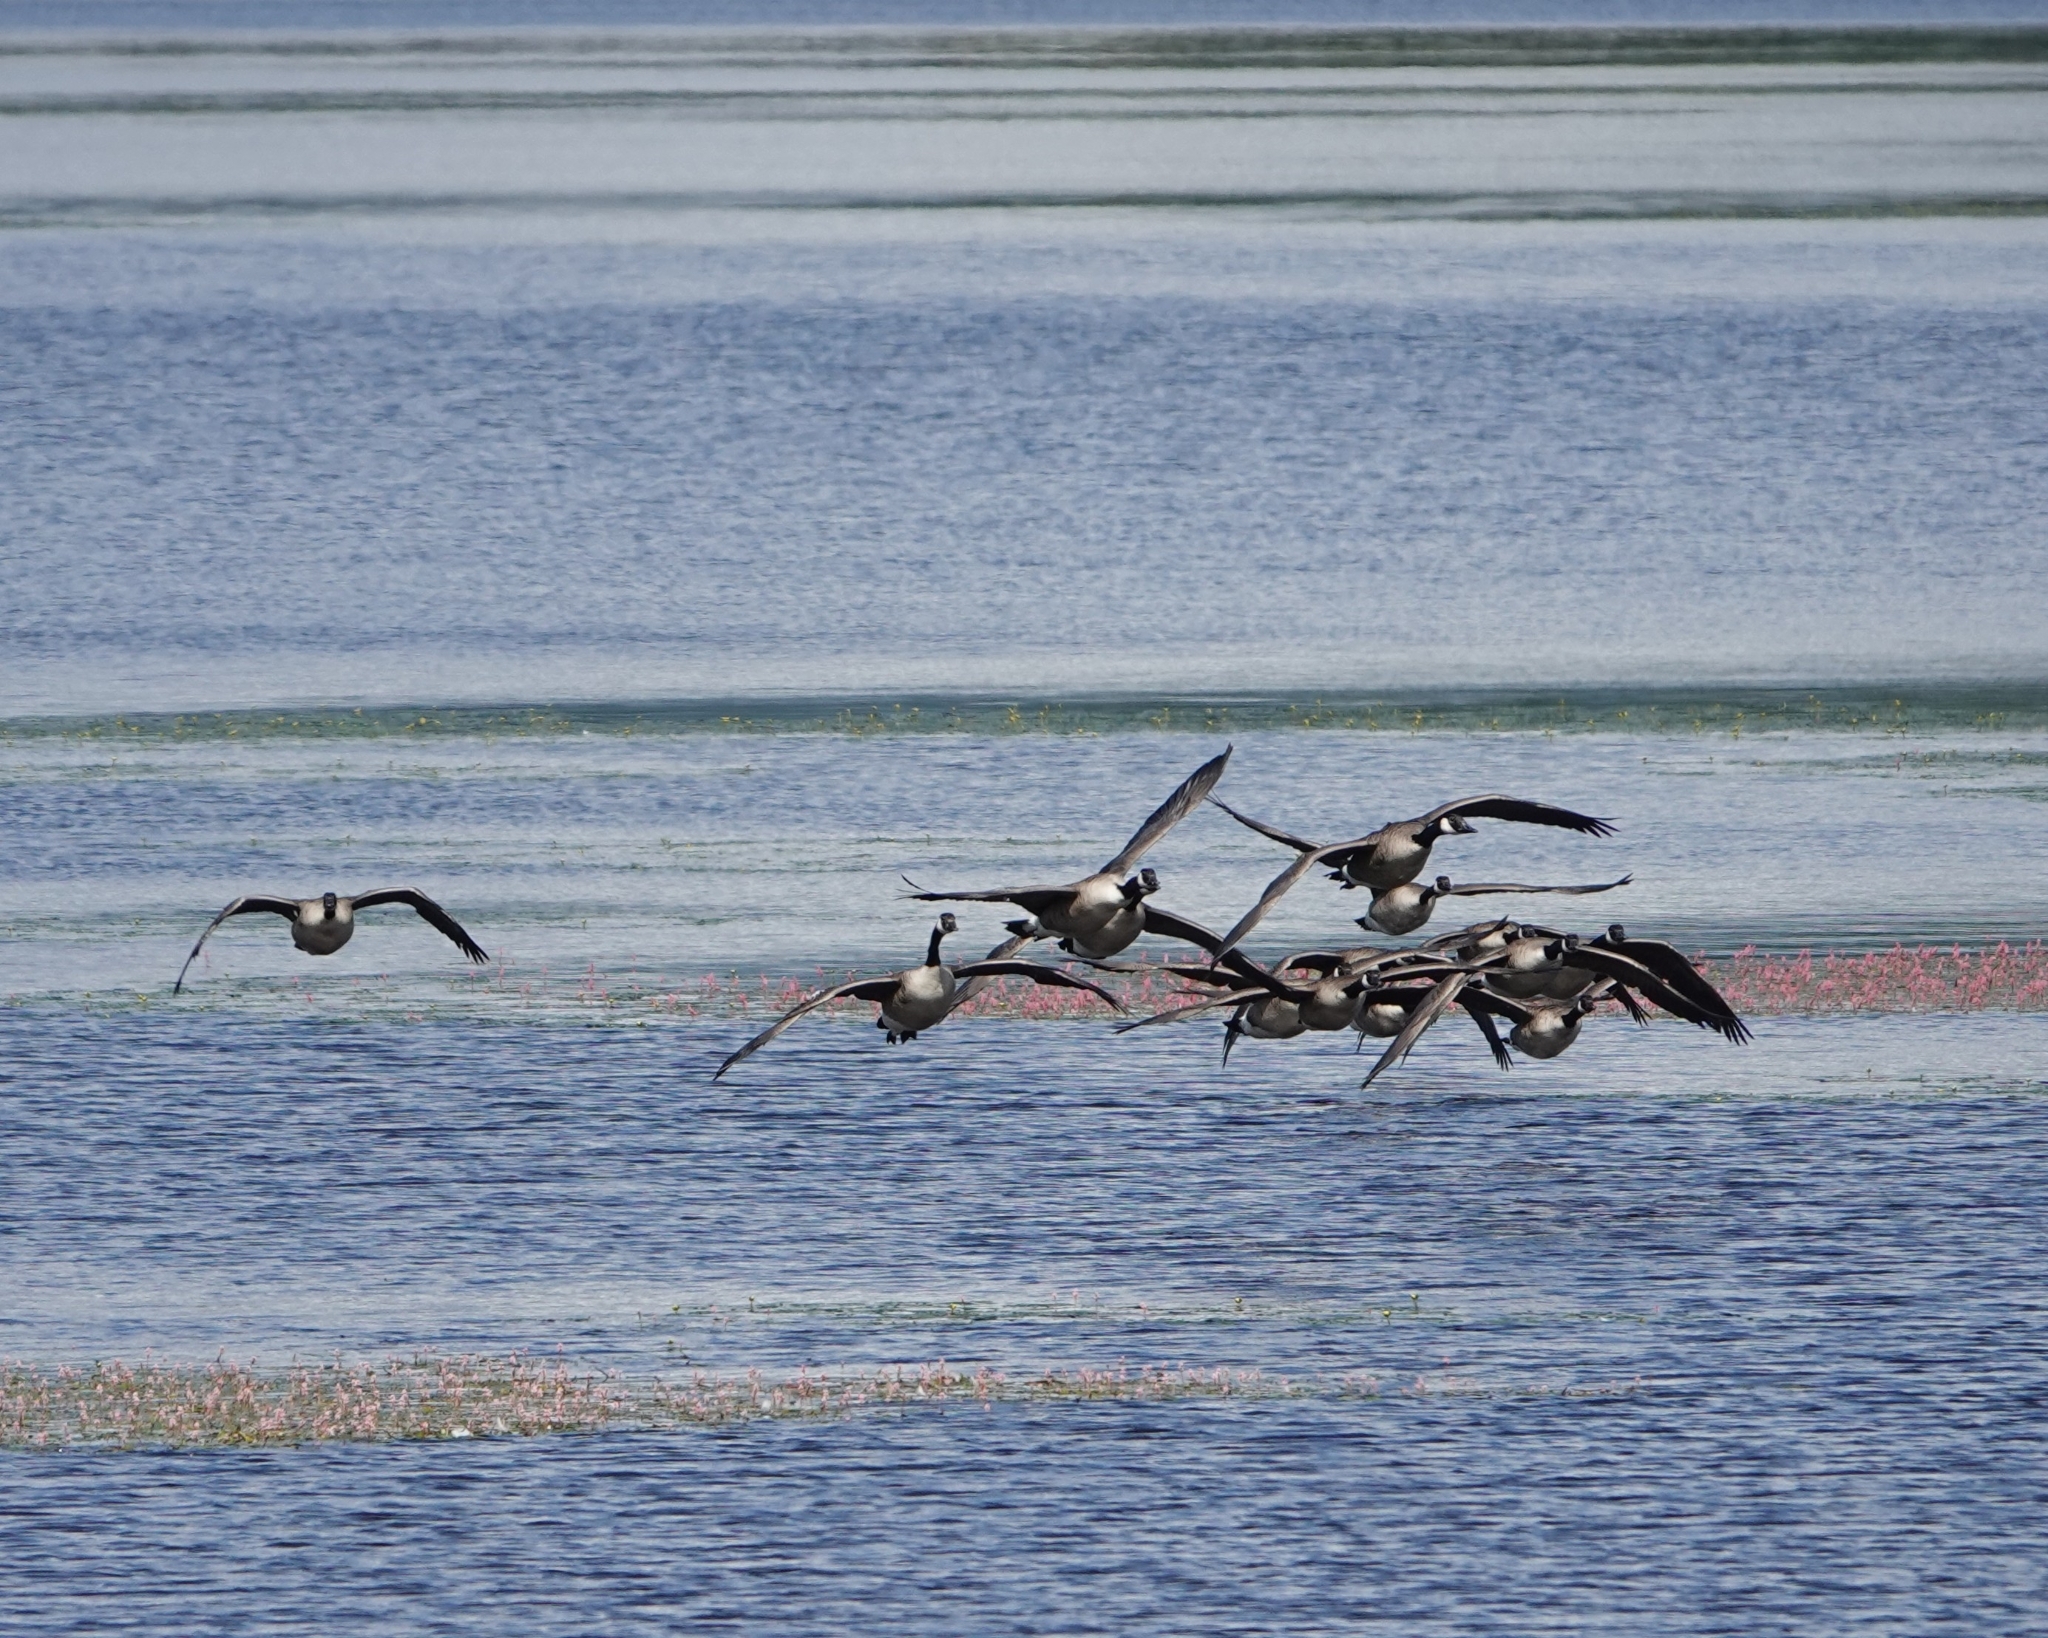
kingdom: Animalia
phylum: Chordata
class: Aves
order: Anseriformes
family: Anatidae
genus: Branta
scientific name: Branta canadensis
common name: Canada goose
